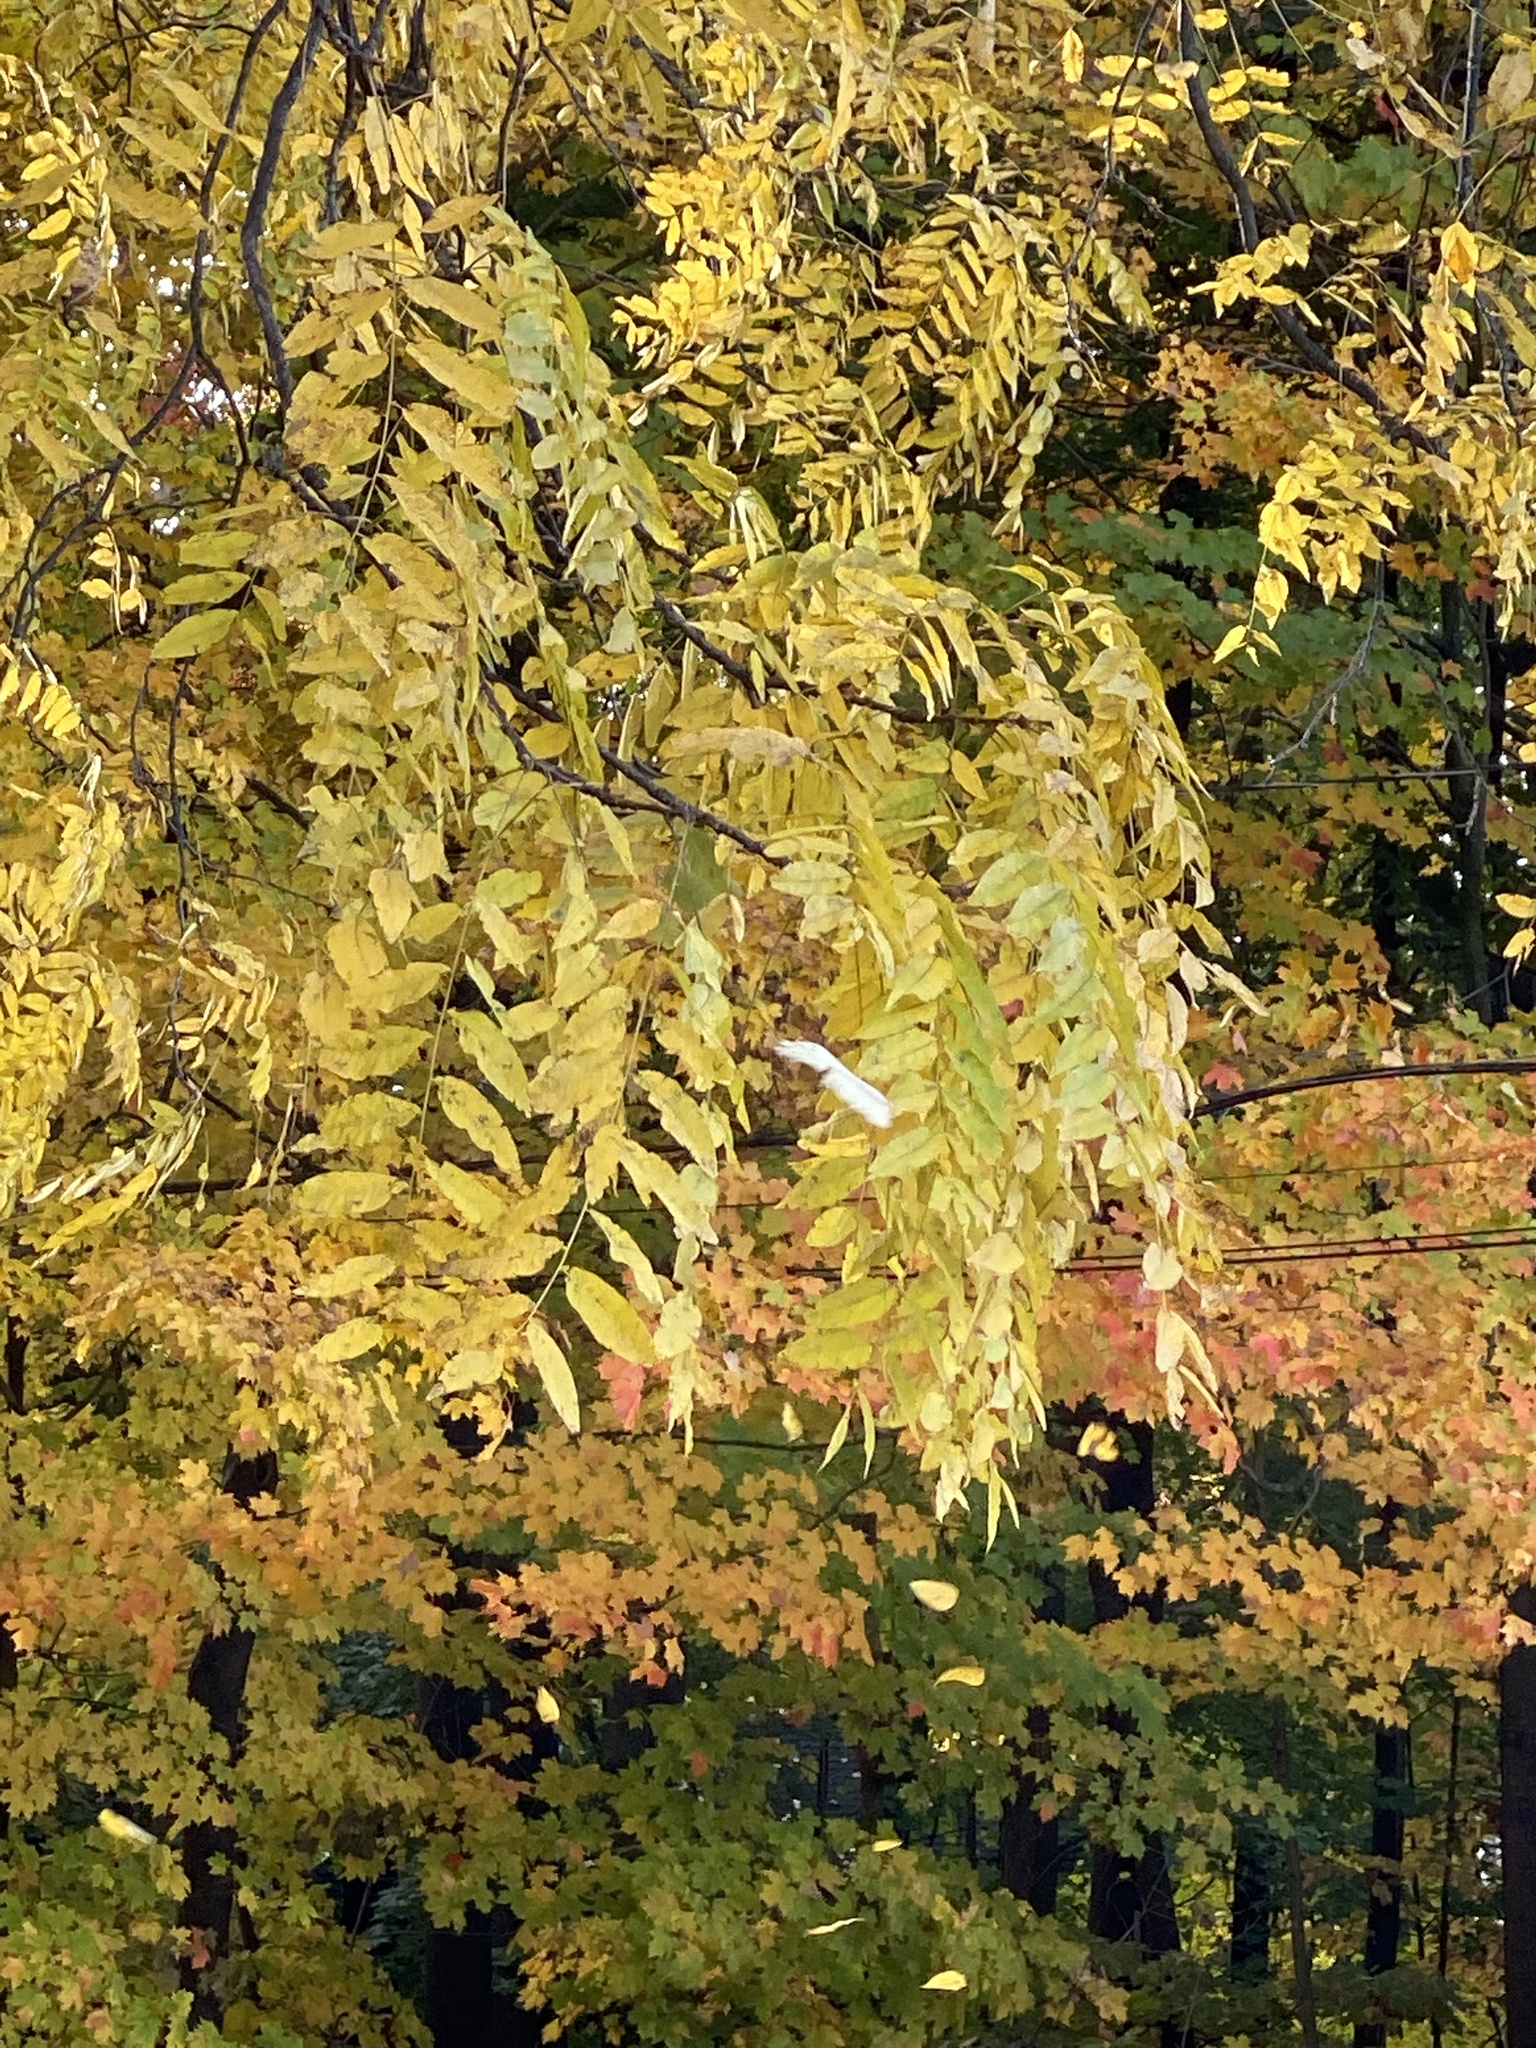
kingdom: Plantae
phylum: Tracheophyta
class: Magnoliopsida
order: Fagales
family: Juglandaceae
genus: Juglans
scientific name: Juglans nigra
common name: Black walnut
